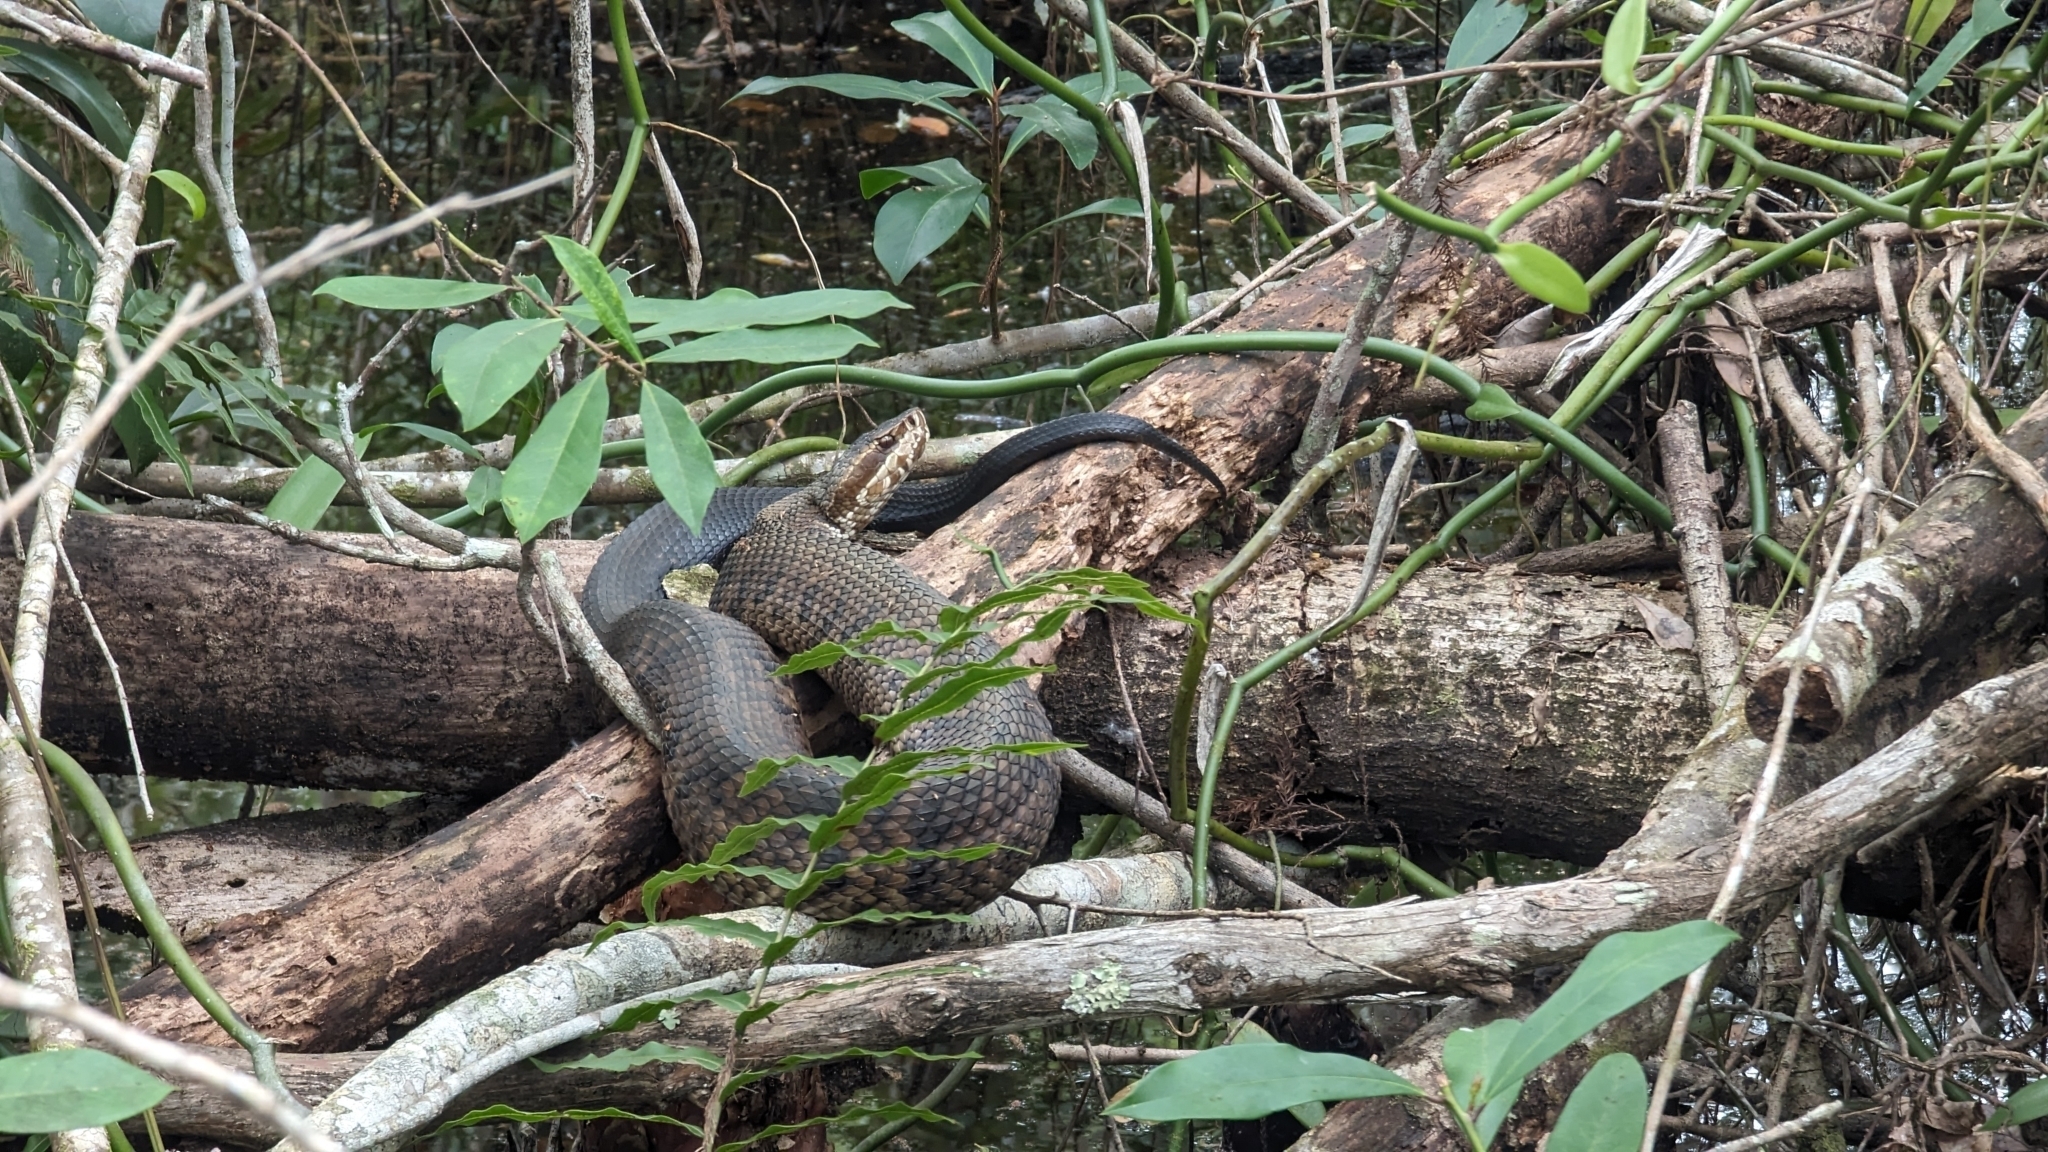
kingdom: Plantae
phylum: Tracheophyta
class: Liliopsida
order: Asparagales
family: Orchidaceae
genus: Vanilla
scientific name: Vanilla phaeantha
